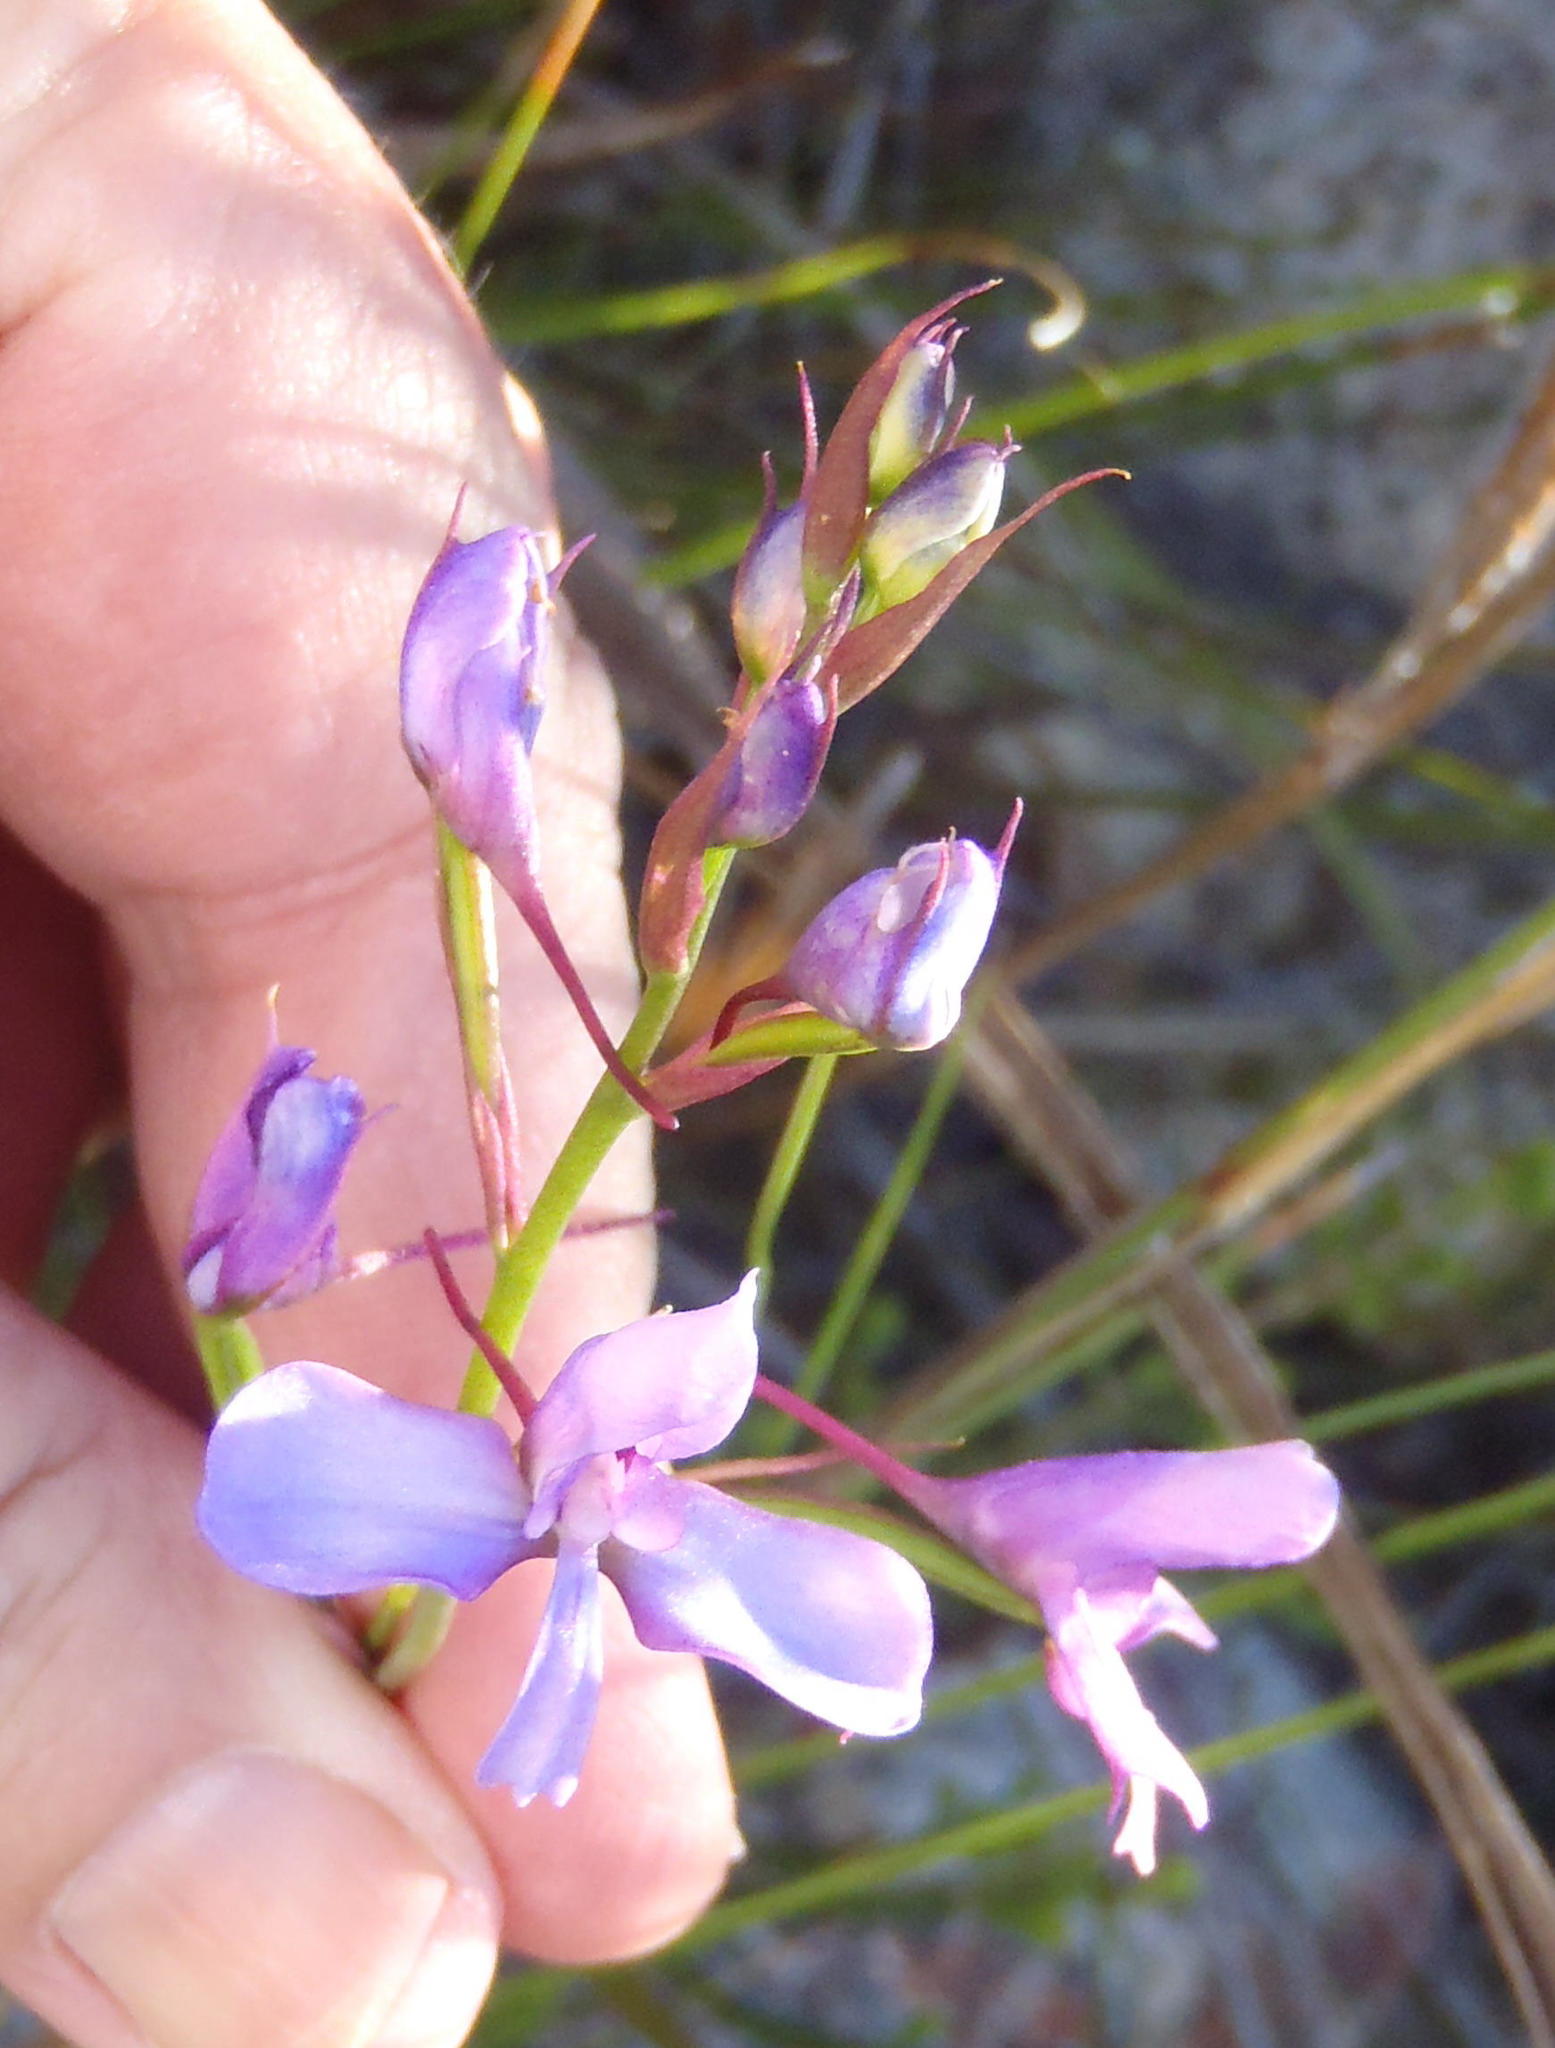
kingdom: Plantae
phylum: Tracheophyta
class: Liliopsida
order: Asparagales
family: Orchidaceae
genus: Disa
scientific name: Disa arida
